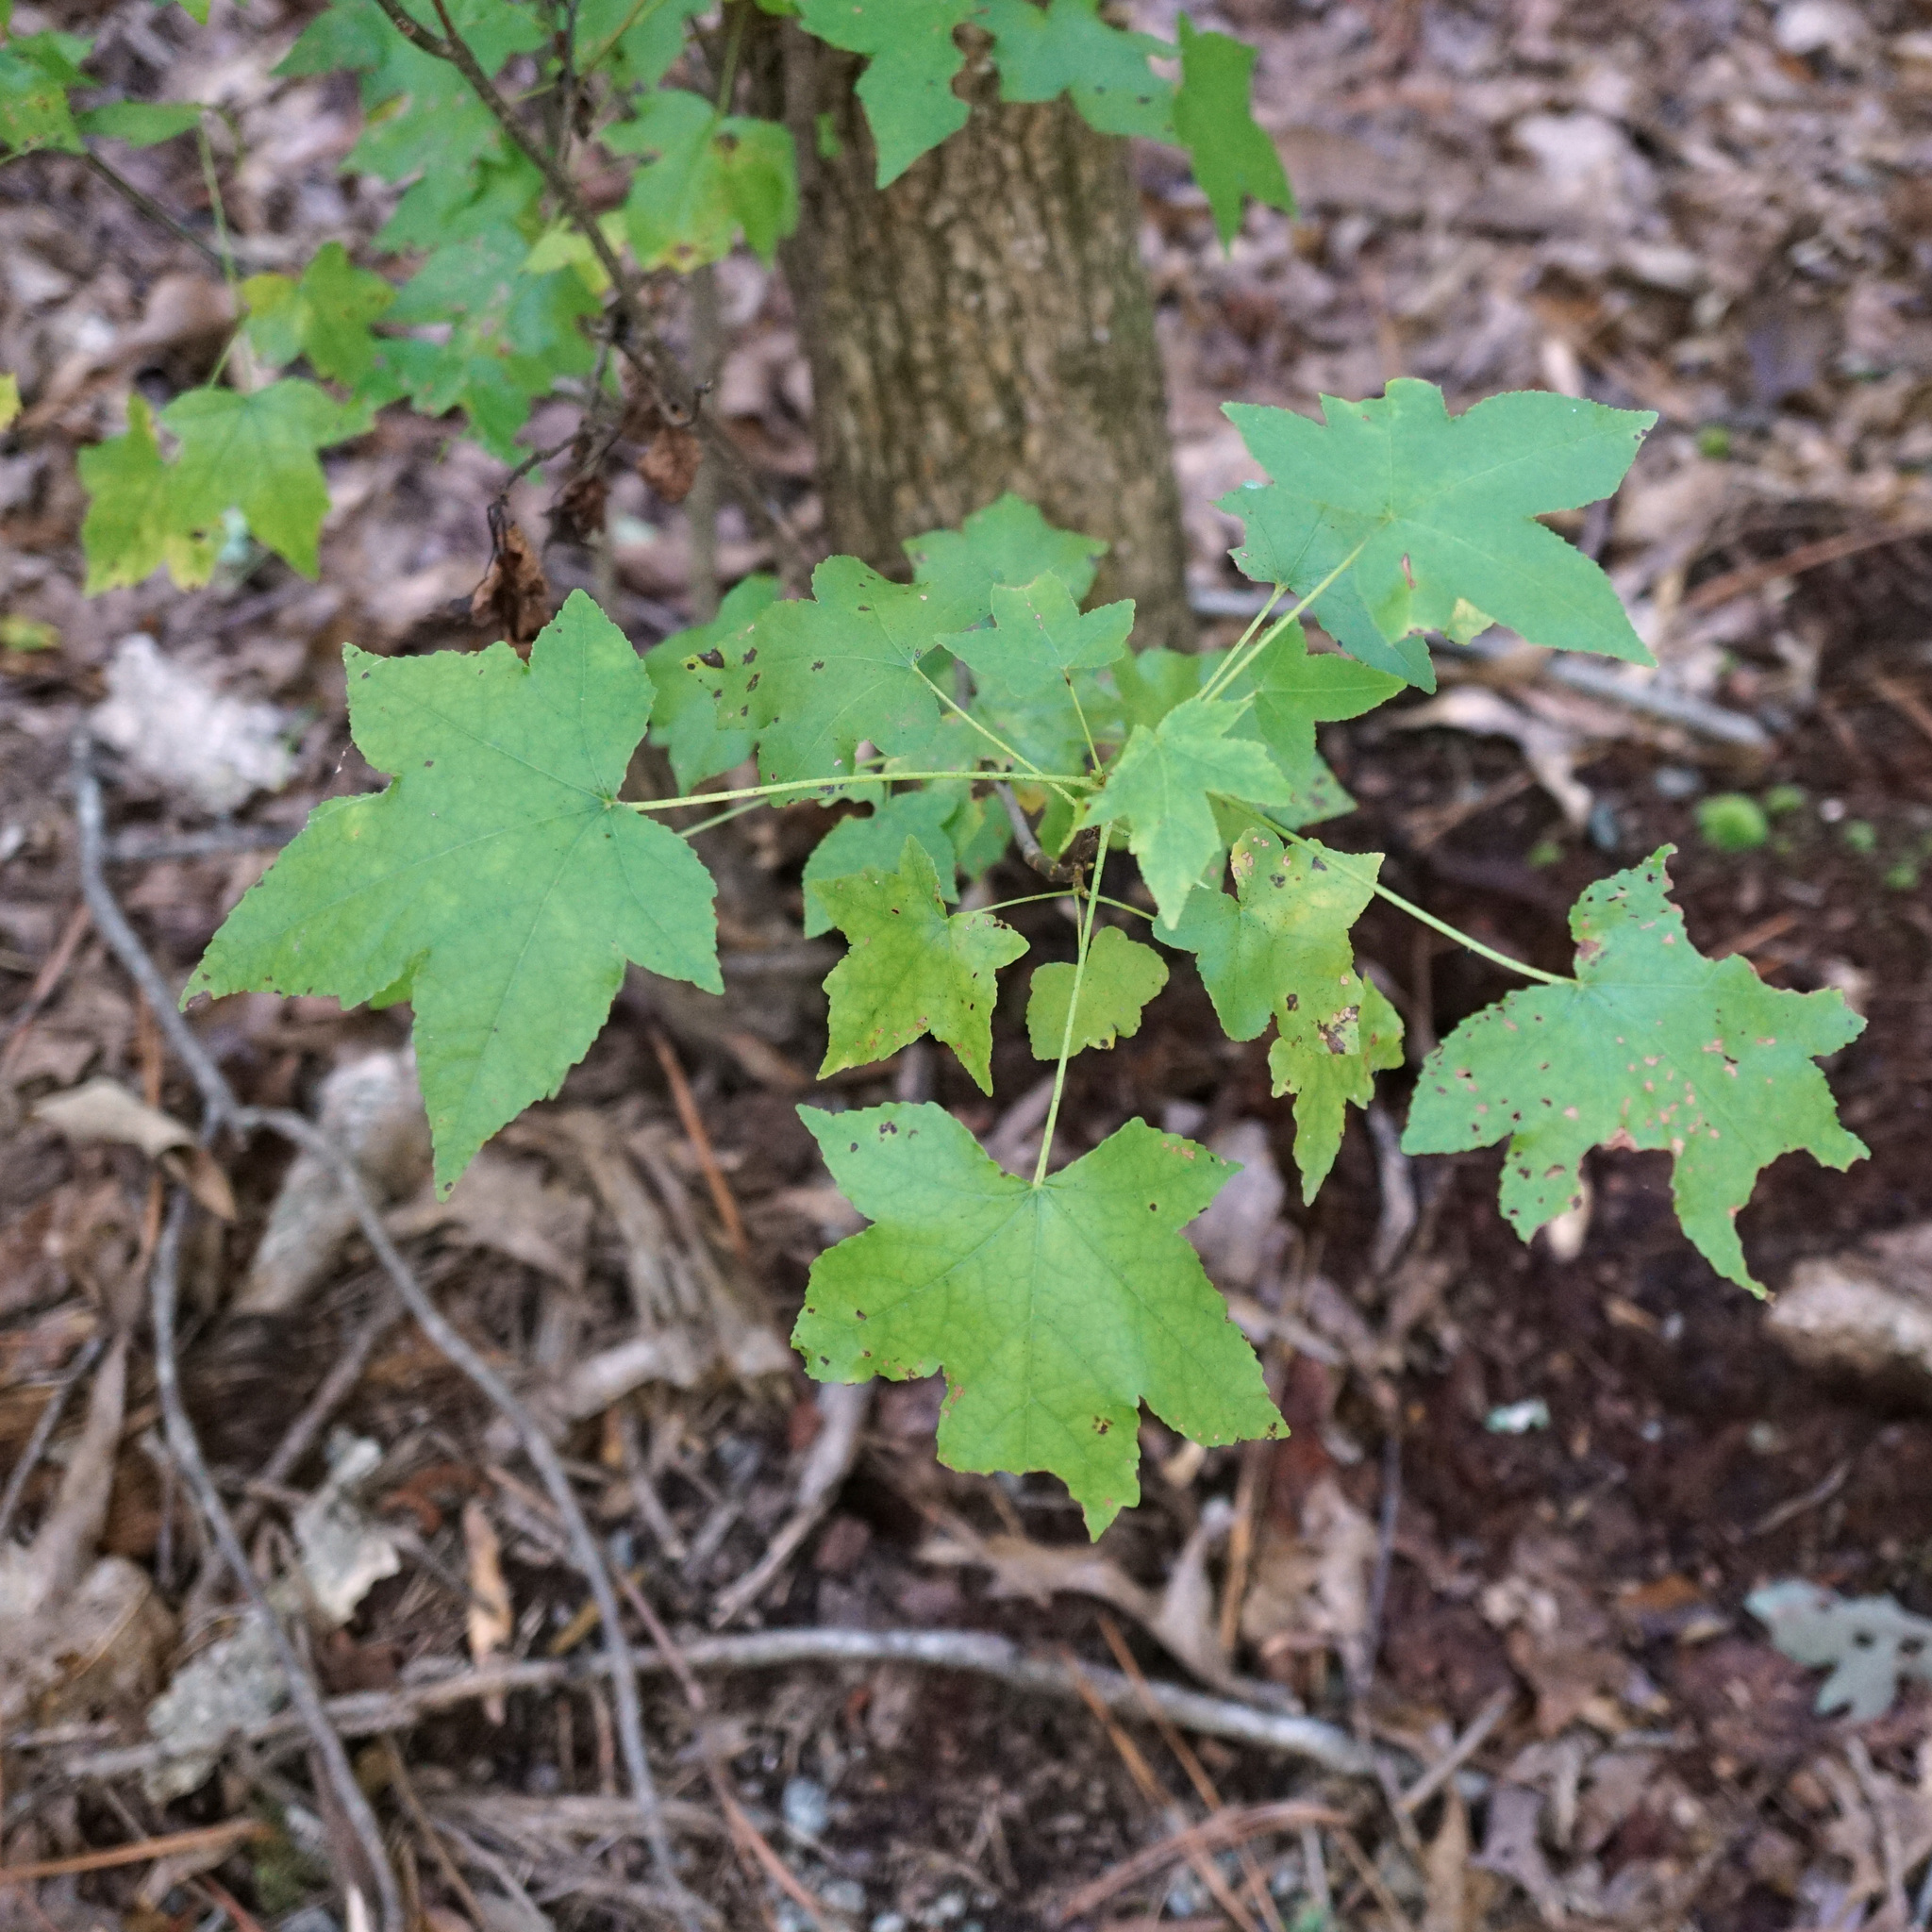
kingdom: Plantae
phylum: Tracheophyta
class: Magnoliopsida
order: Saxifragales
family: Altingiaceae
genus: Liquidambar
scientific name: Liquidambar styraciflua
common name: Sweet gum
